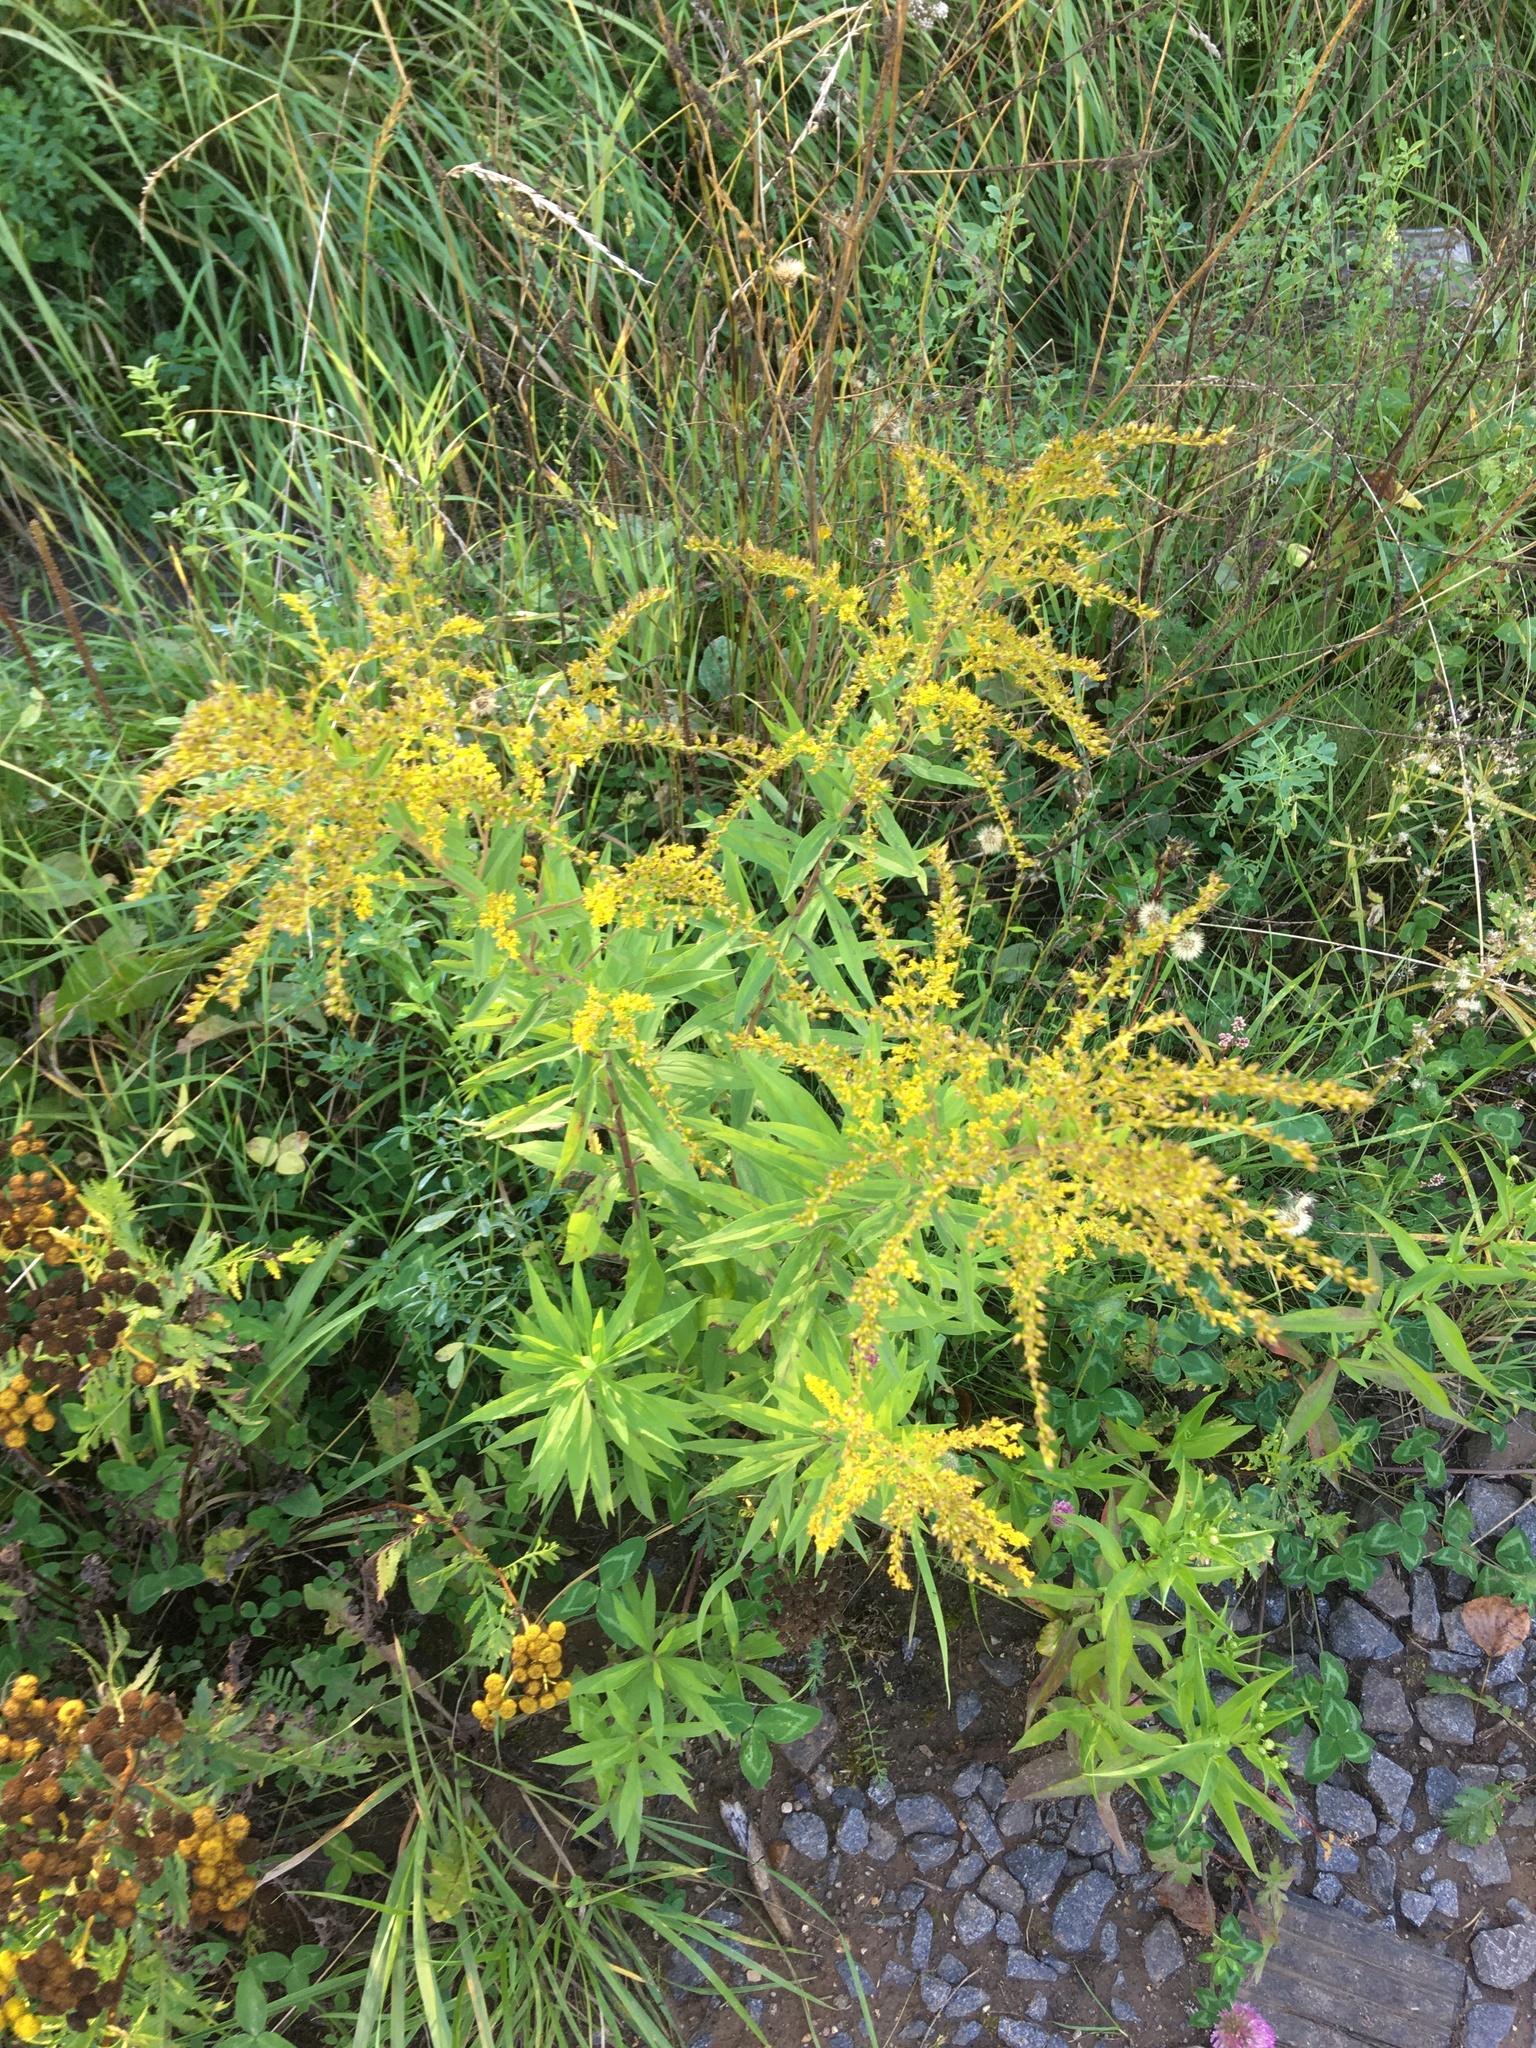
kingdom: Plantae
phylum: Tracheophyta
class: Magnoliopsida
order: Asterales
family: Asteraceae
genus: Solidago
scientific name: Solidago canadensis
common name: Canada goldenrod
